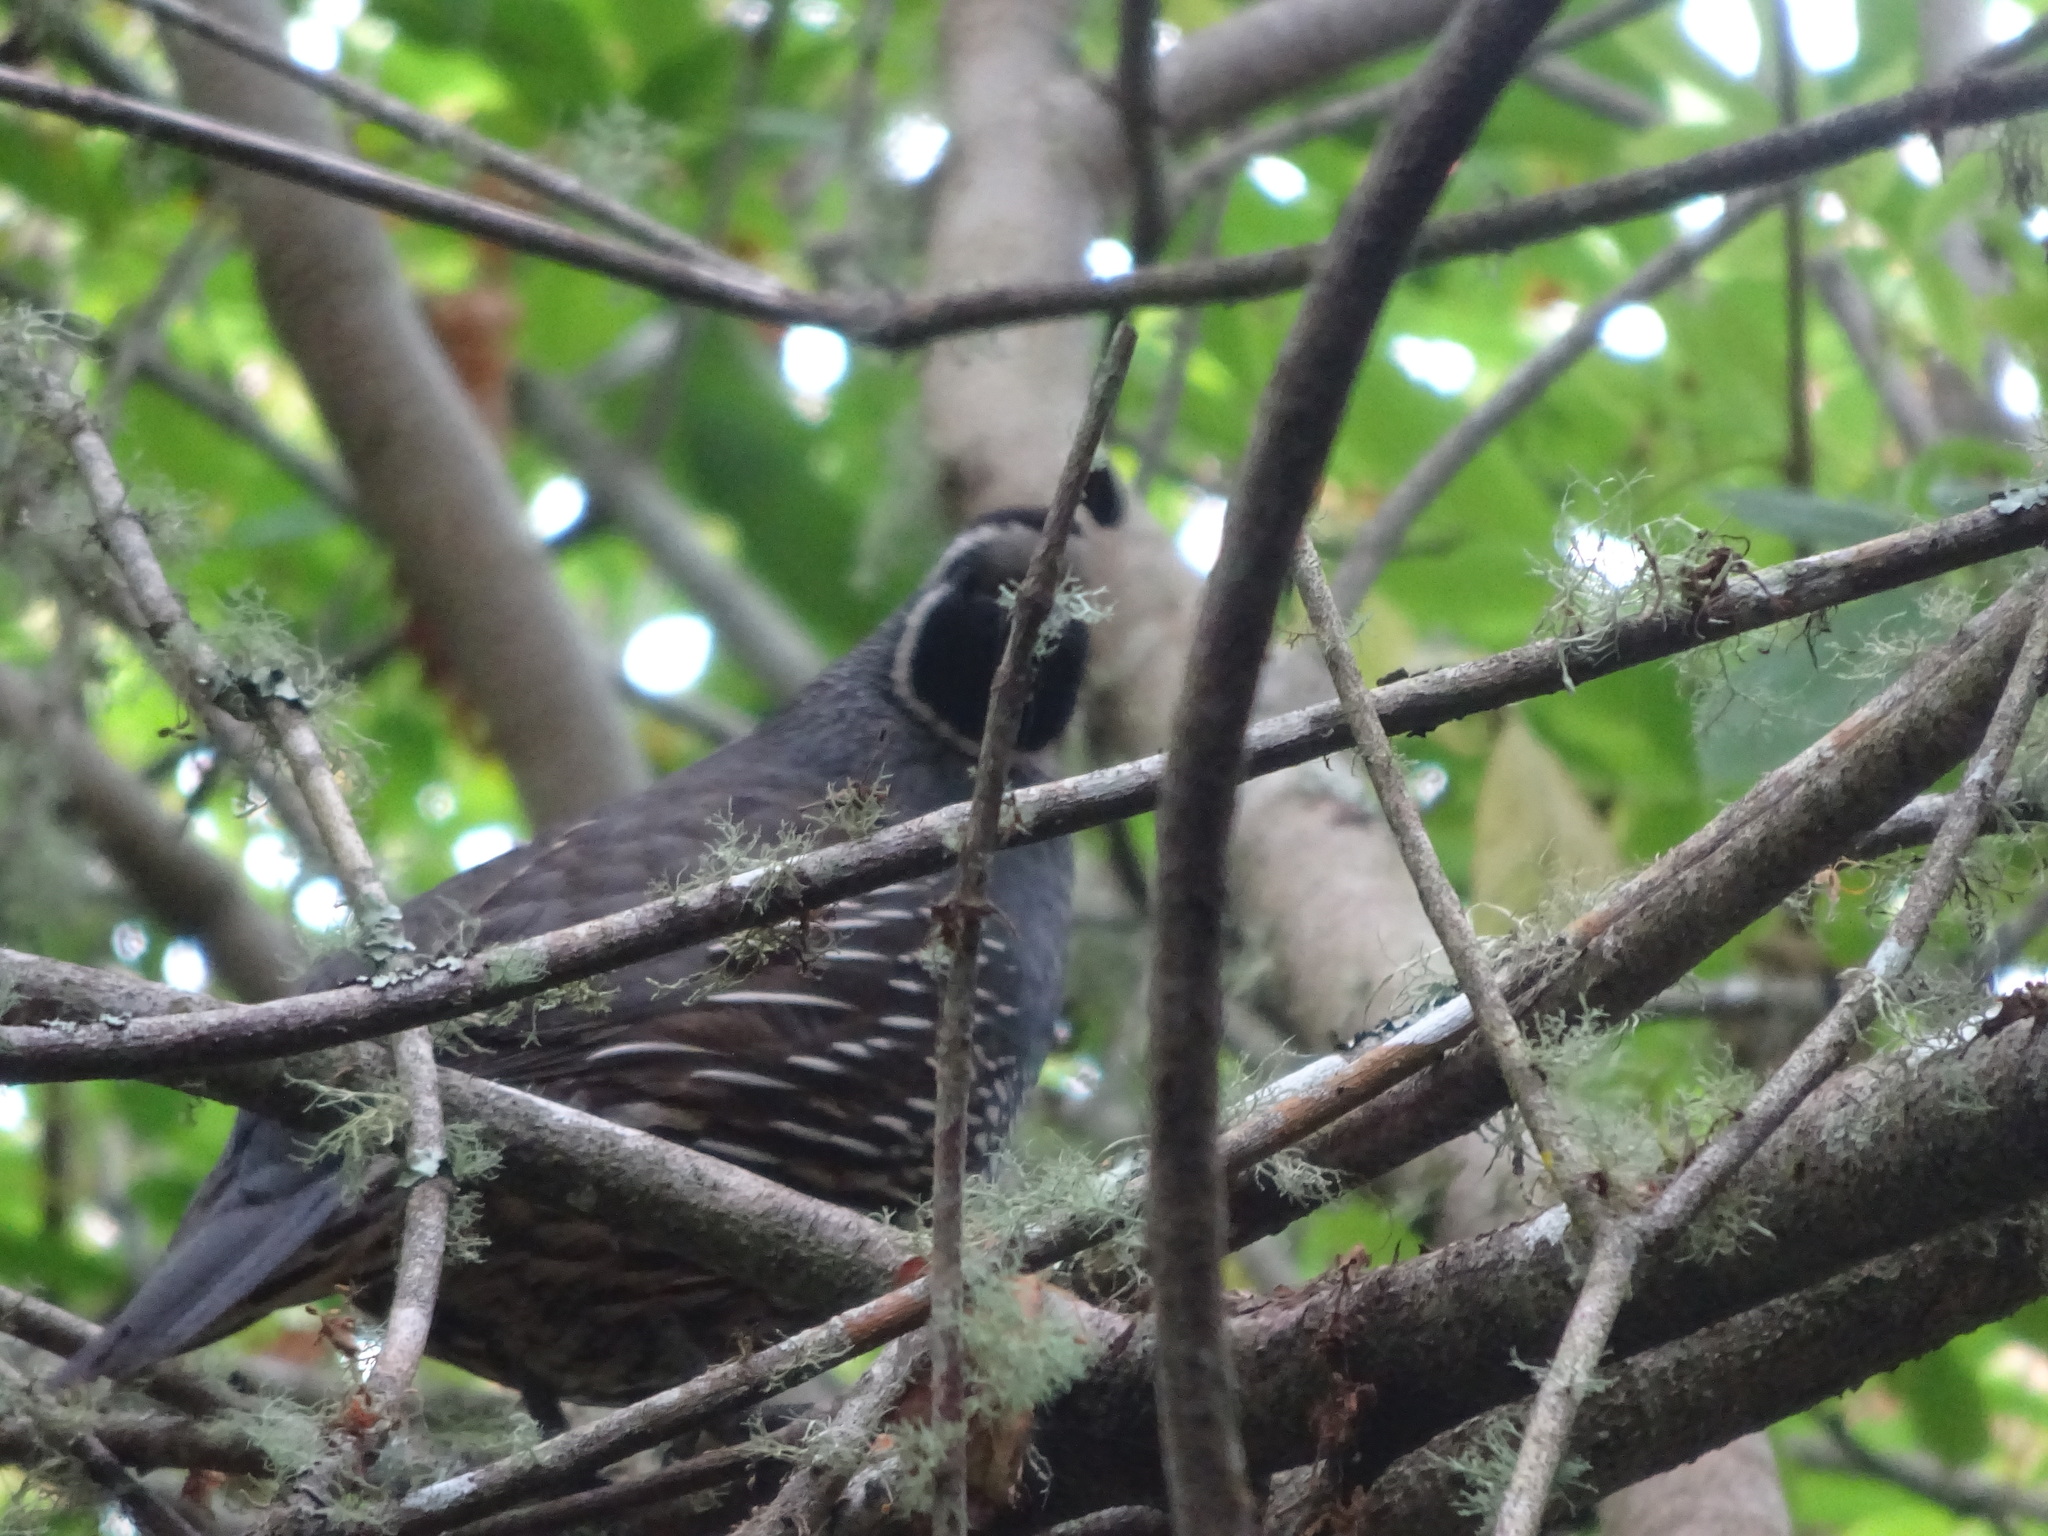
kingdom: Animalia
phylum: Chordata
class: Aves
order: Galliformes
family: Odontophoridae
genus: Callipepla
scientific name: Callipepla californica
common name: California quail
